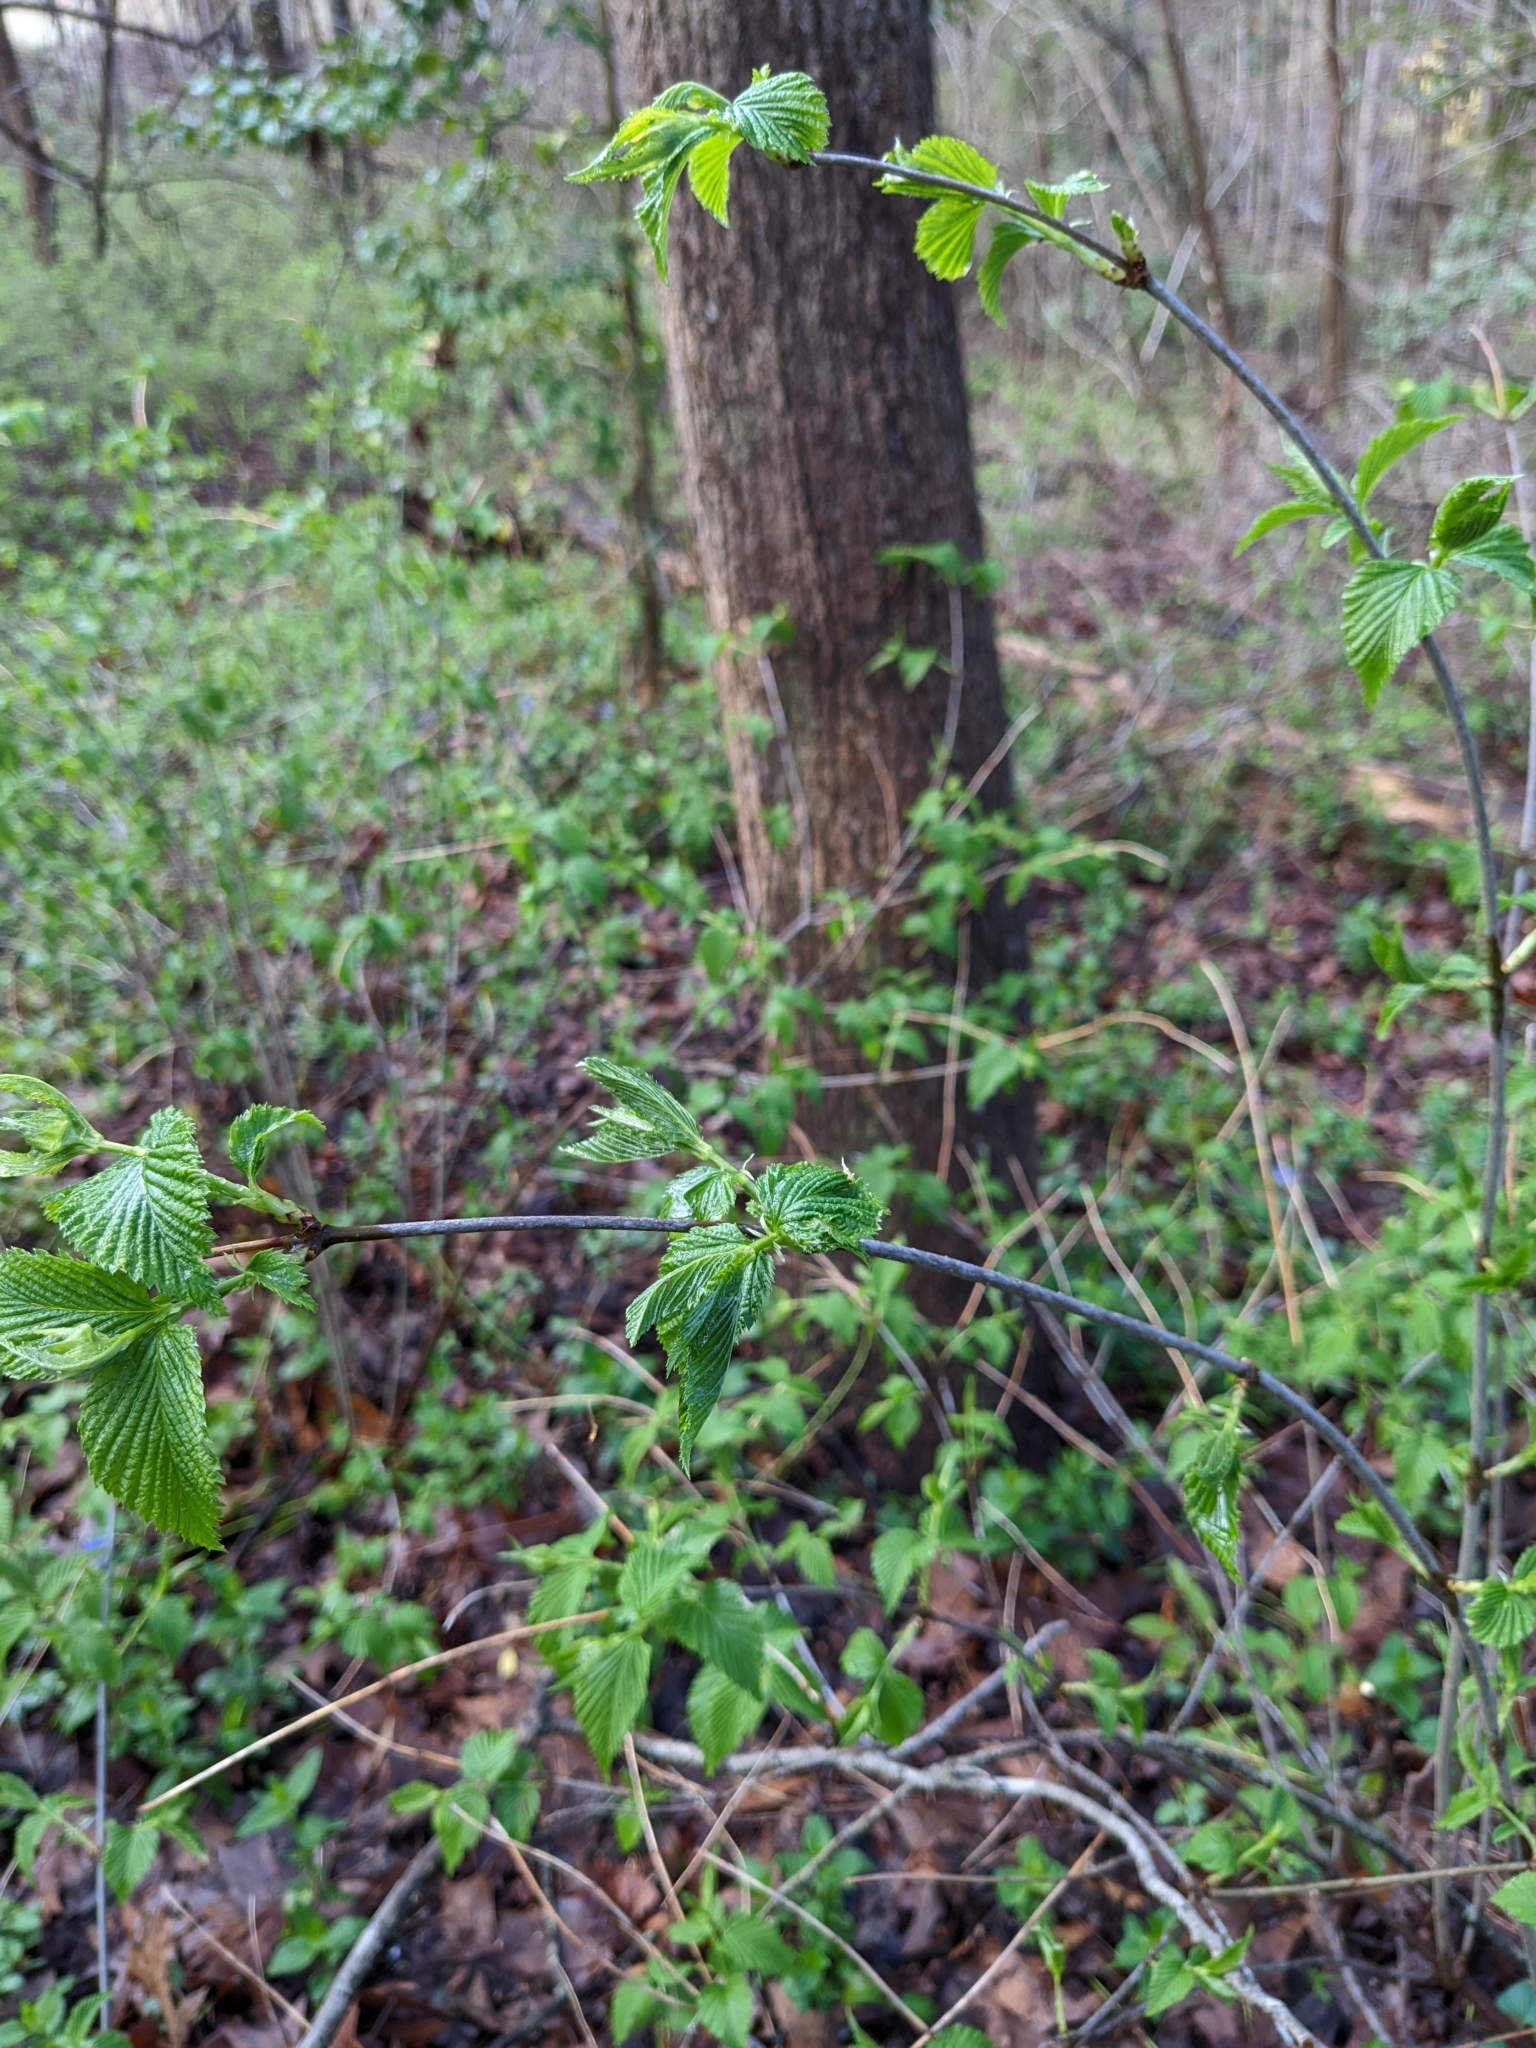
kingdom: Plantae
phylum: Tracheophyta
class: Magnoliopsida
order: Rosales
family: Rosaceae
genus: Rhodotypos
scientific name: Rhodotypos scandens
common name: Jetbead
